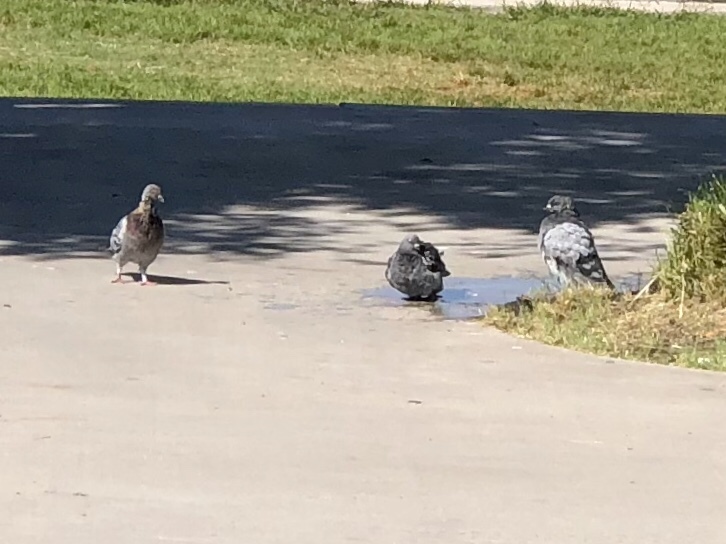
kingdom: Animalia
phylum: Chordata
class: Aves
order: Columbiformes
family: Columbidae
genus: Columba
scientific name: Columba livia
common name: Rock pigeon
